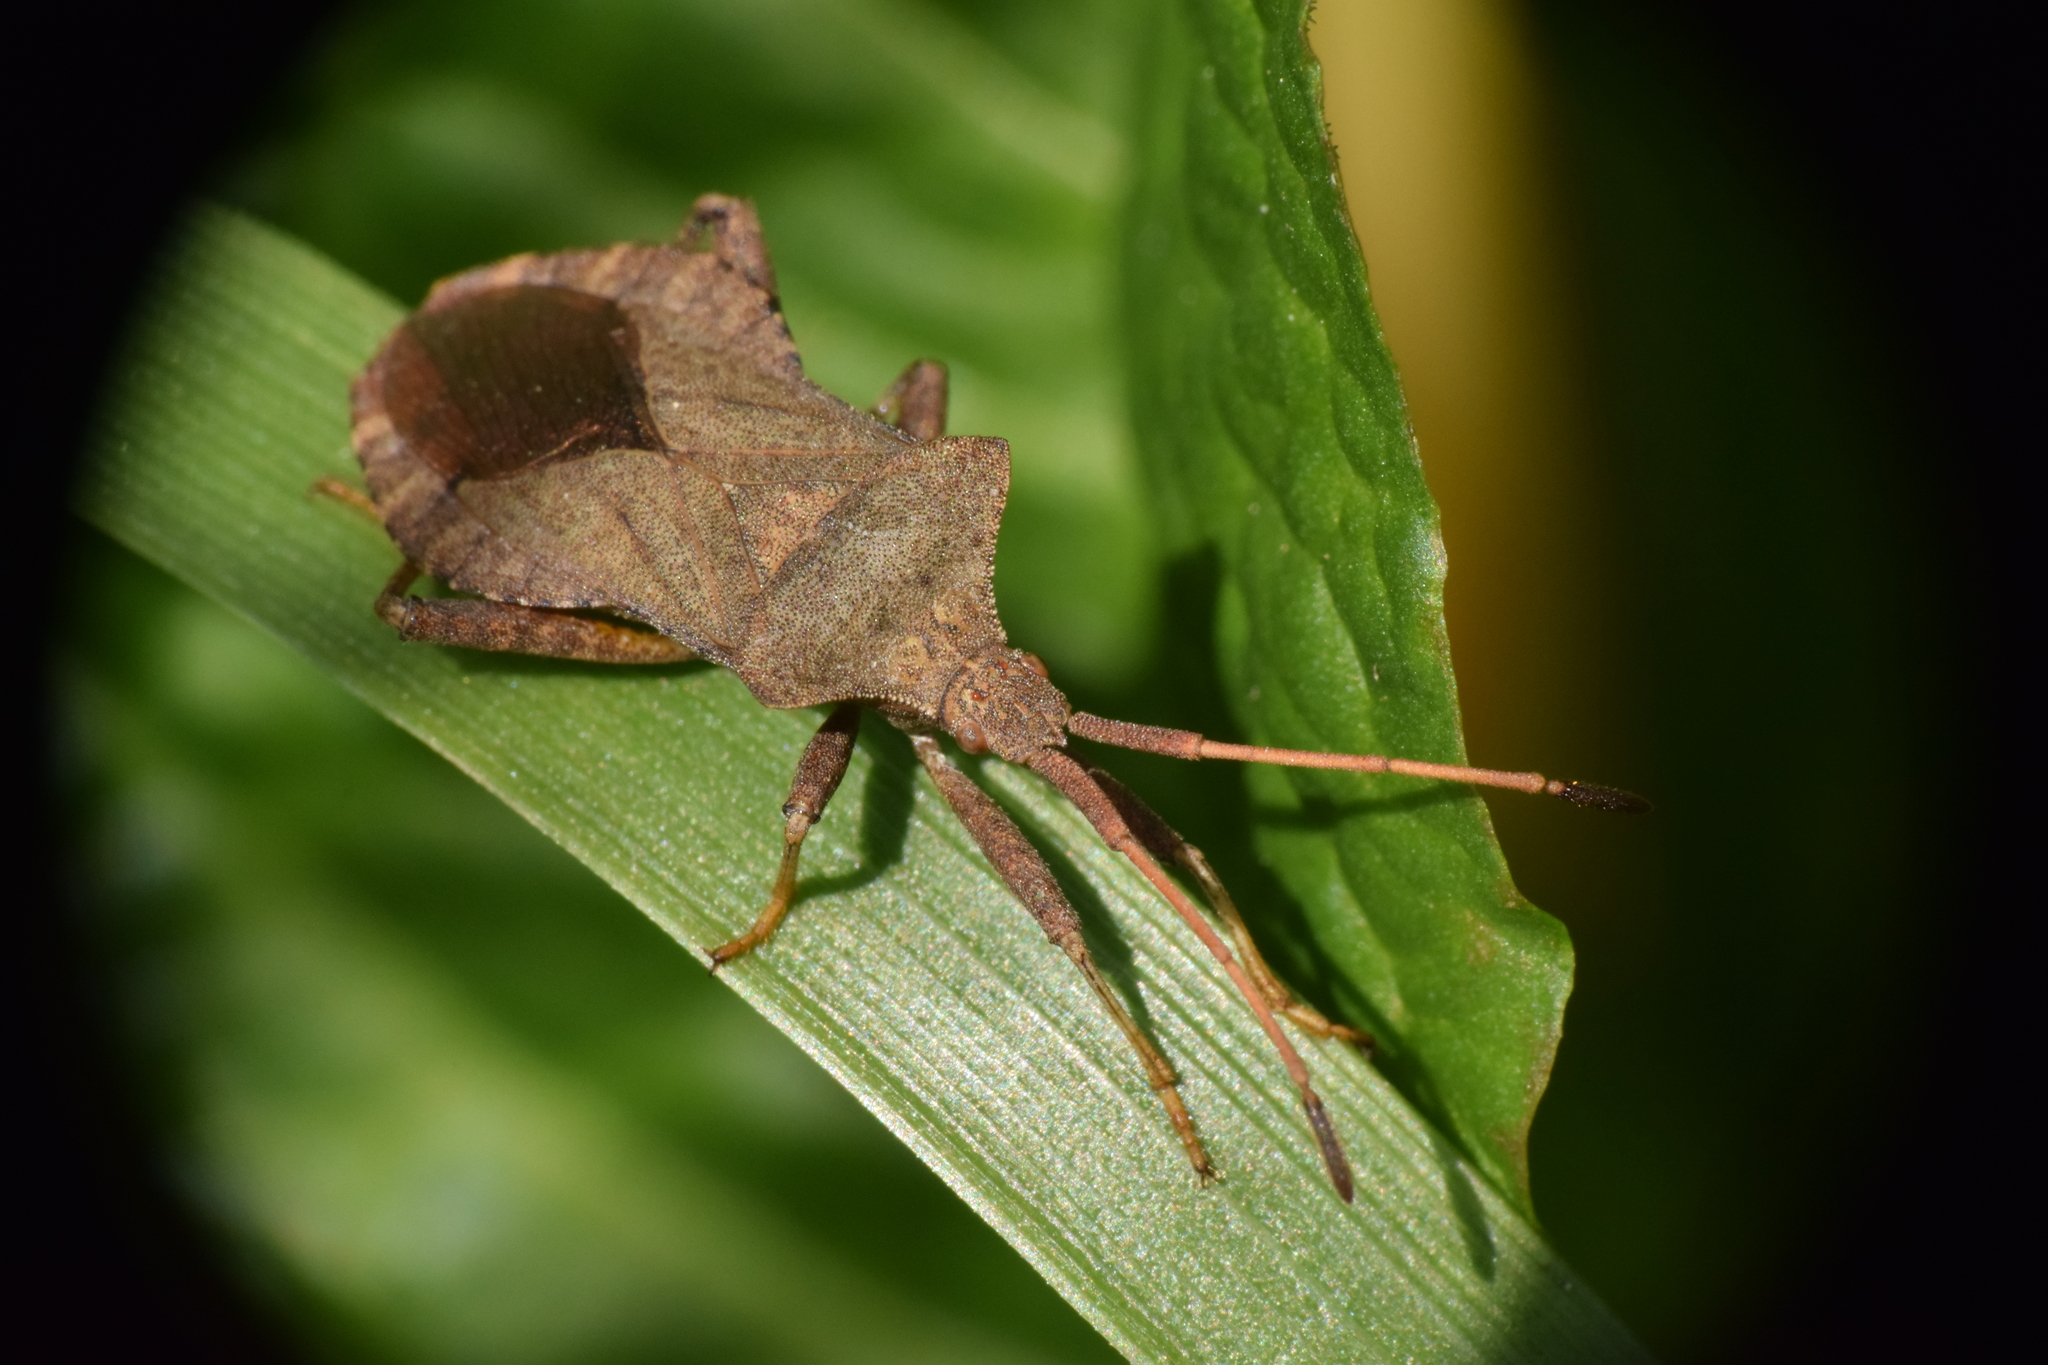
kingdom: Animalia
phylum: Arthropoda
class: Insecta
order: Hemiptera
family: Coreidae
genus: Coreus
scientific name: Coreus marginatus
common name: Dock bug
